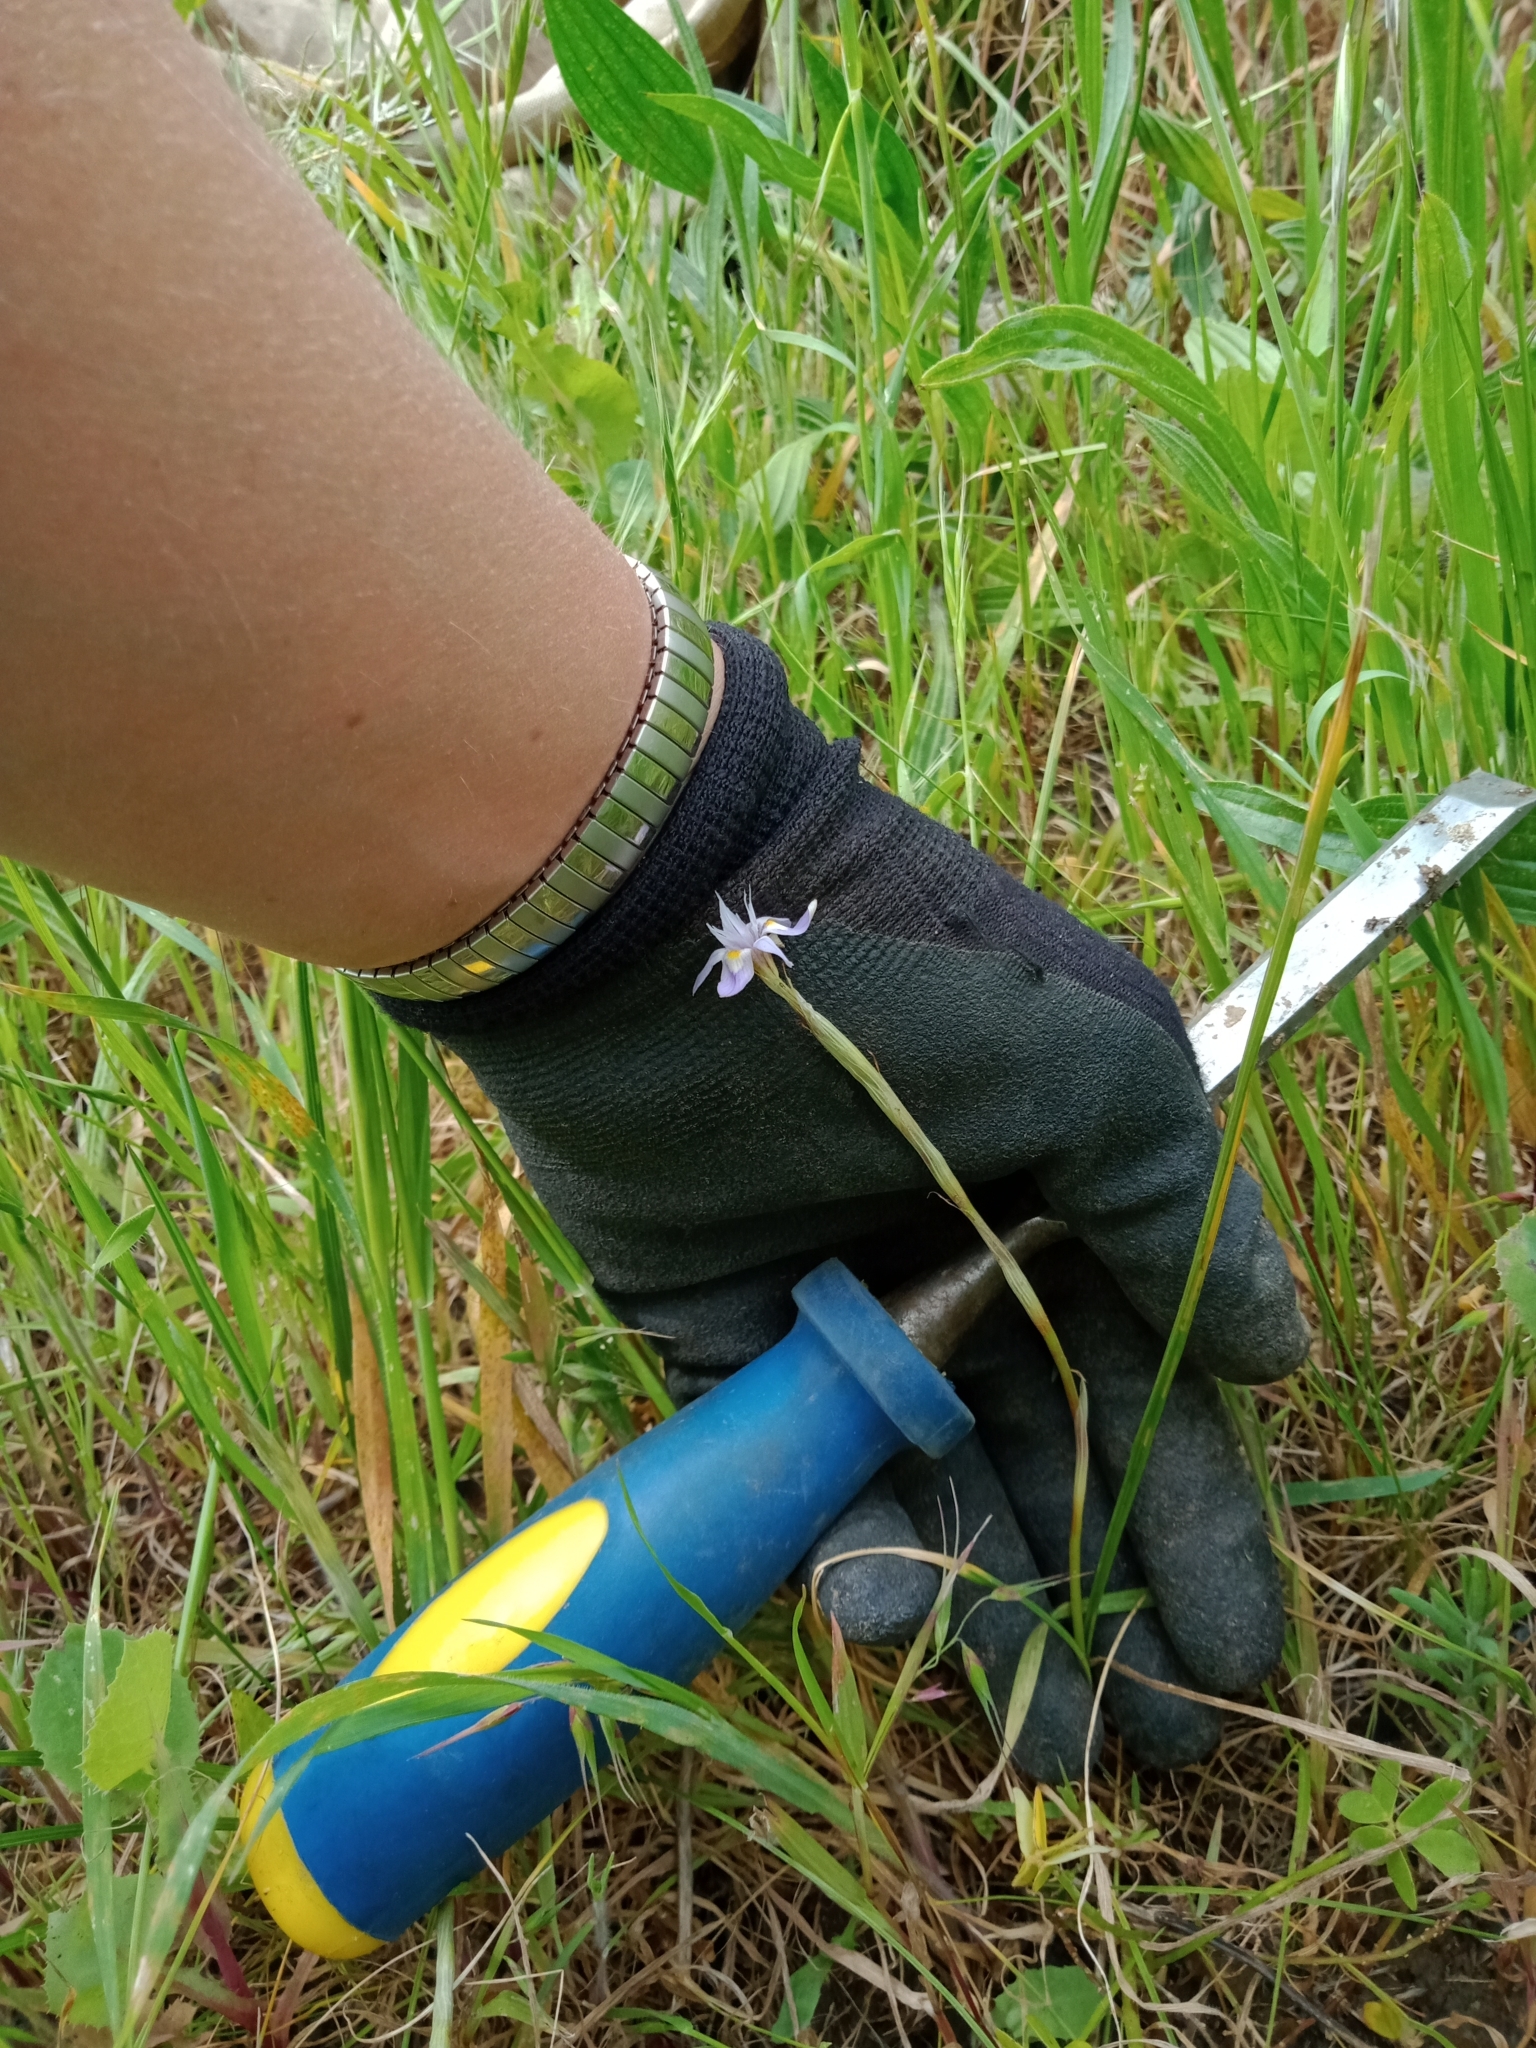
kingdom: Plantae
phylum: Tracheophyta
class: Liliopsida
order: Asparagales
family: Iridaceae
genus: Moraea
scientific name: Moraea setifolia
